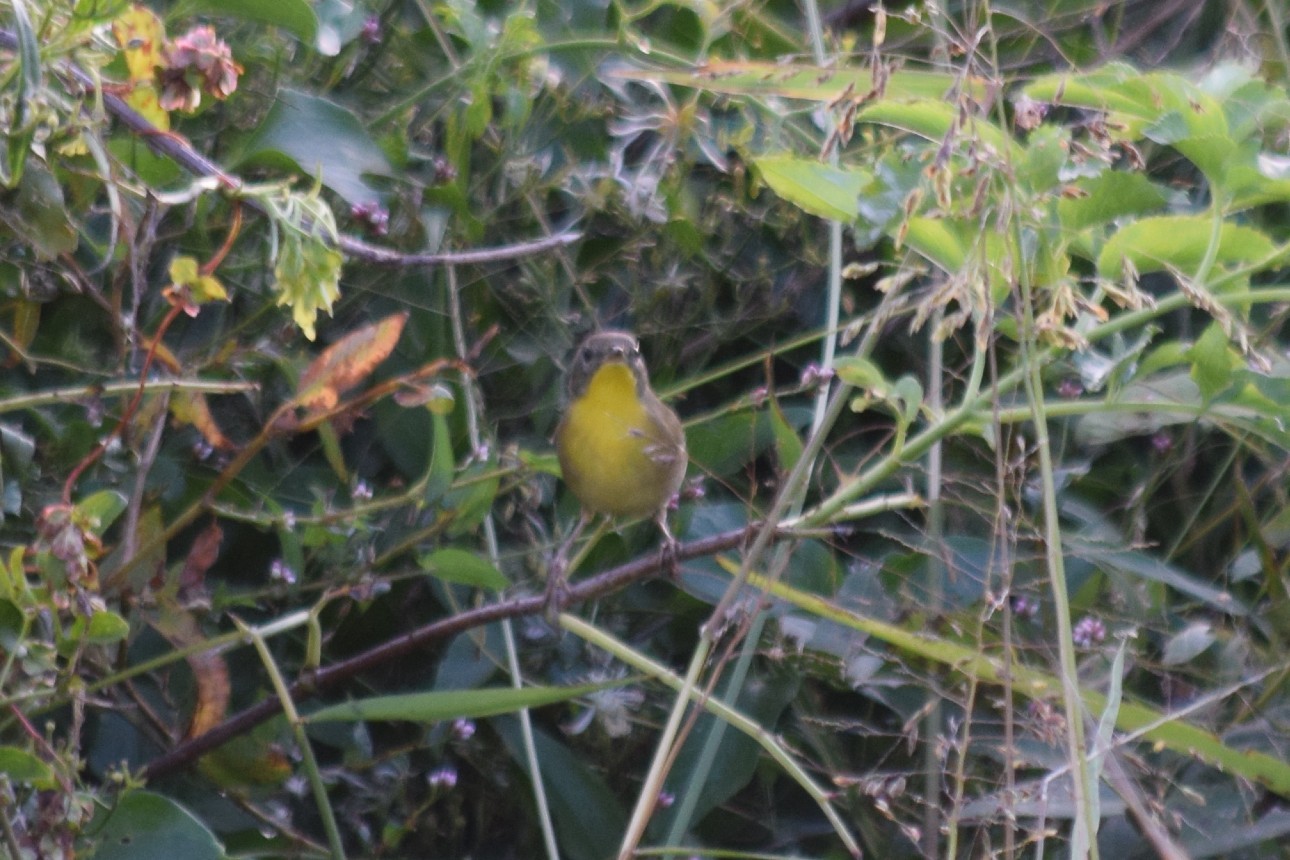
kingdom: Animalia
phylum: Chordata
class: Aves
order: Passeriformes
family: Parulidae
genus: Geothlypis
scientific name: Geothlypis trichas
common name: Common yellowthroat
